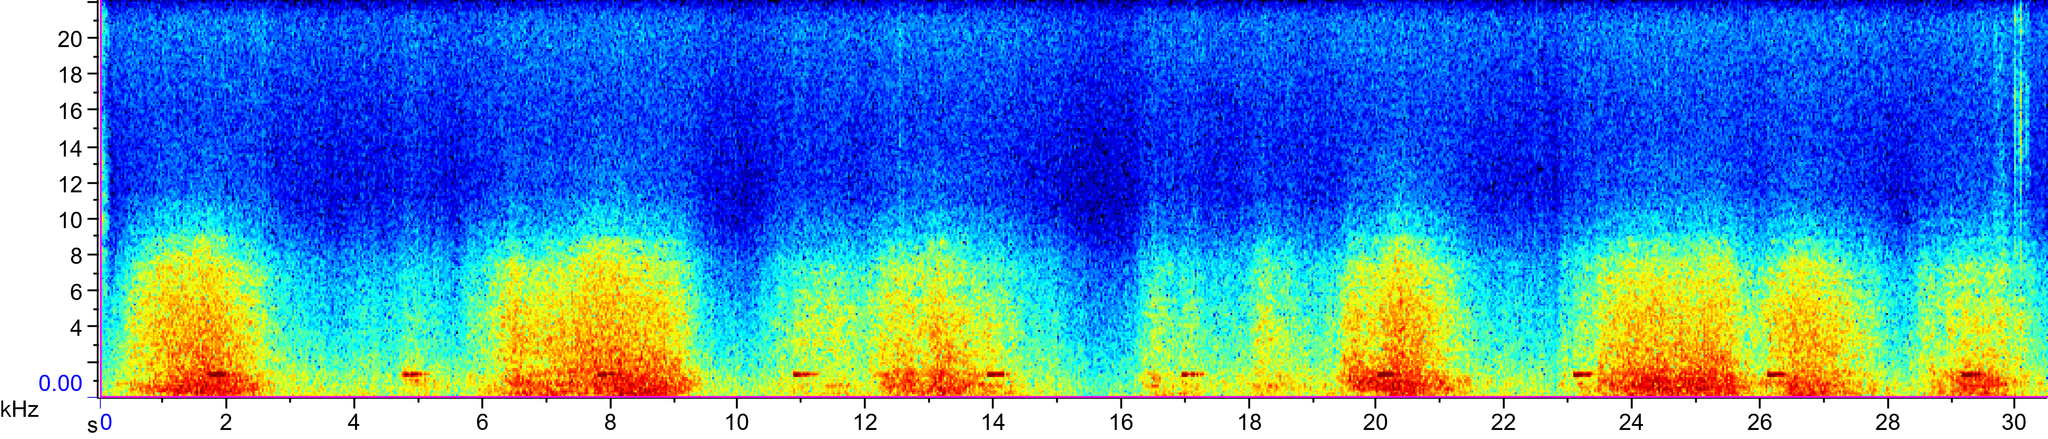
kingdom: Animalia
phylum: Chordata
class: Aves
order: Strigiformes
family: Strigidae
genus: Otus
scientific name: Otus scops
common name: Eurasian scops owl
